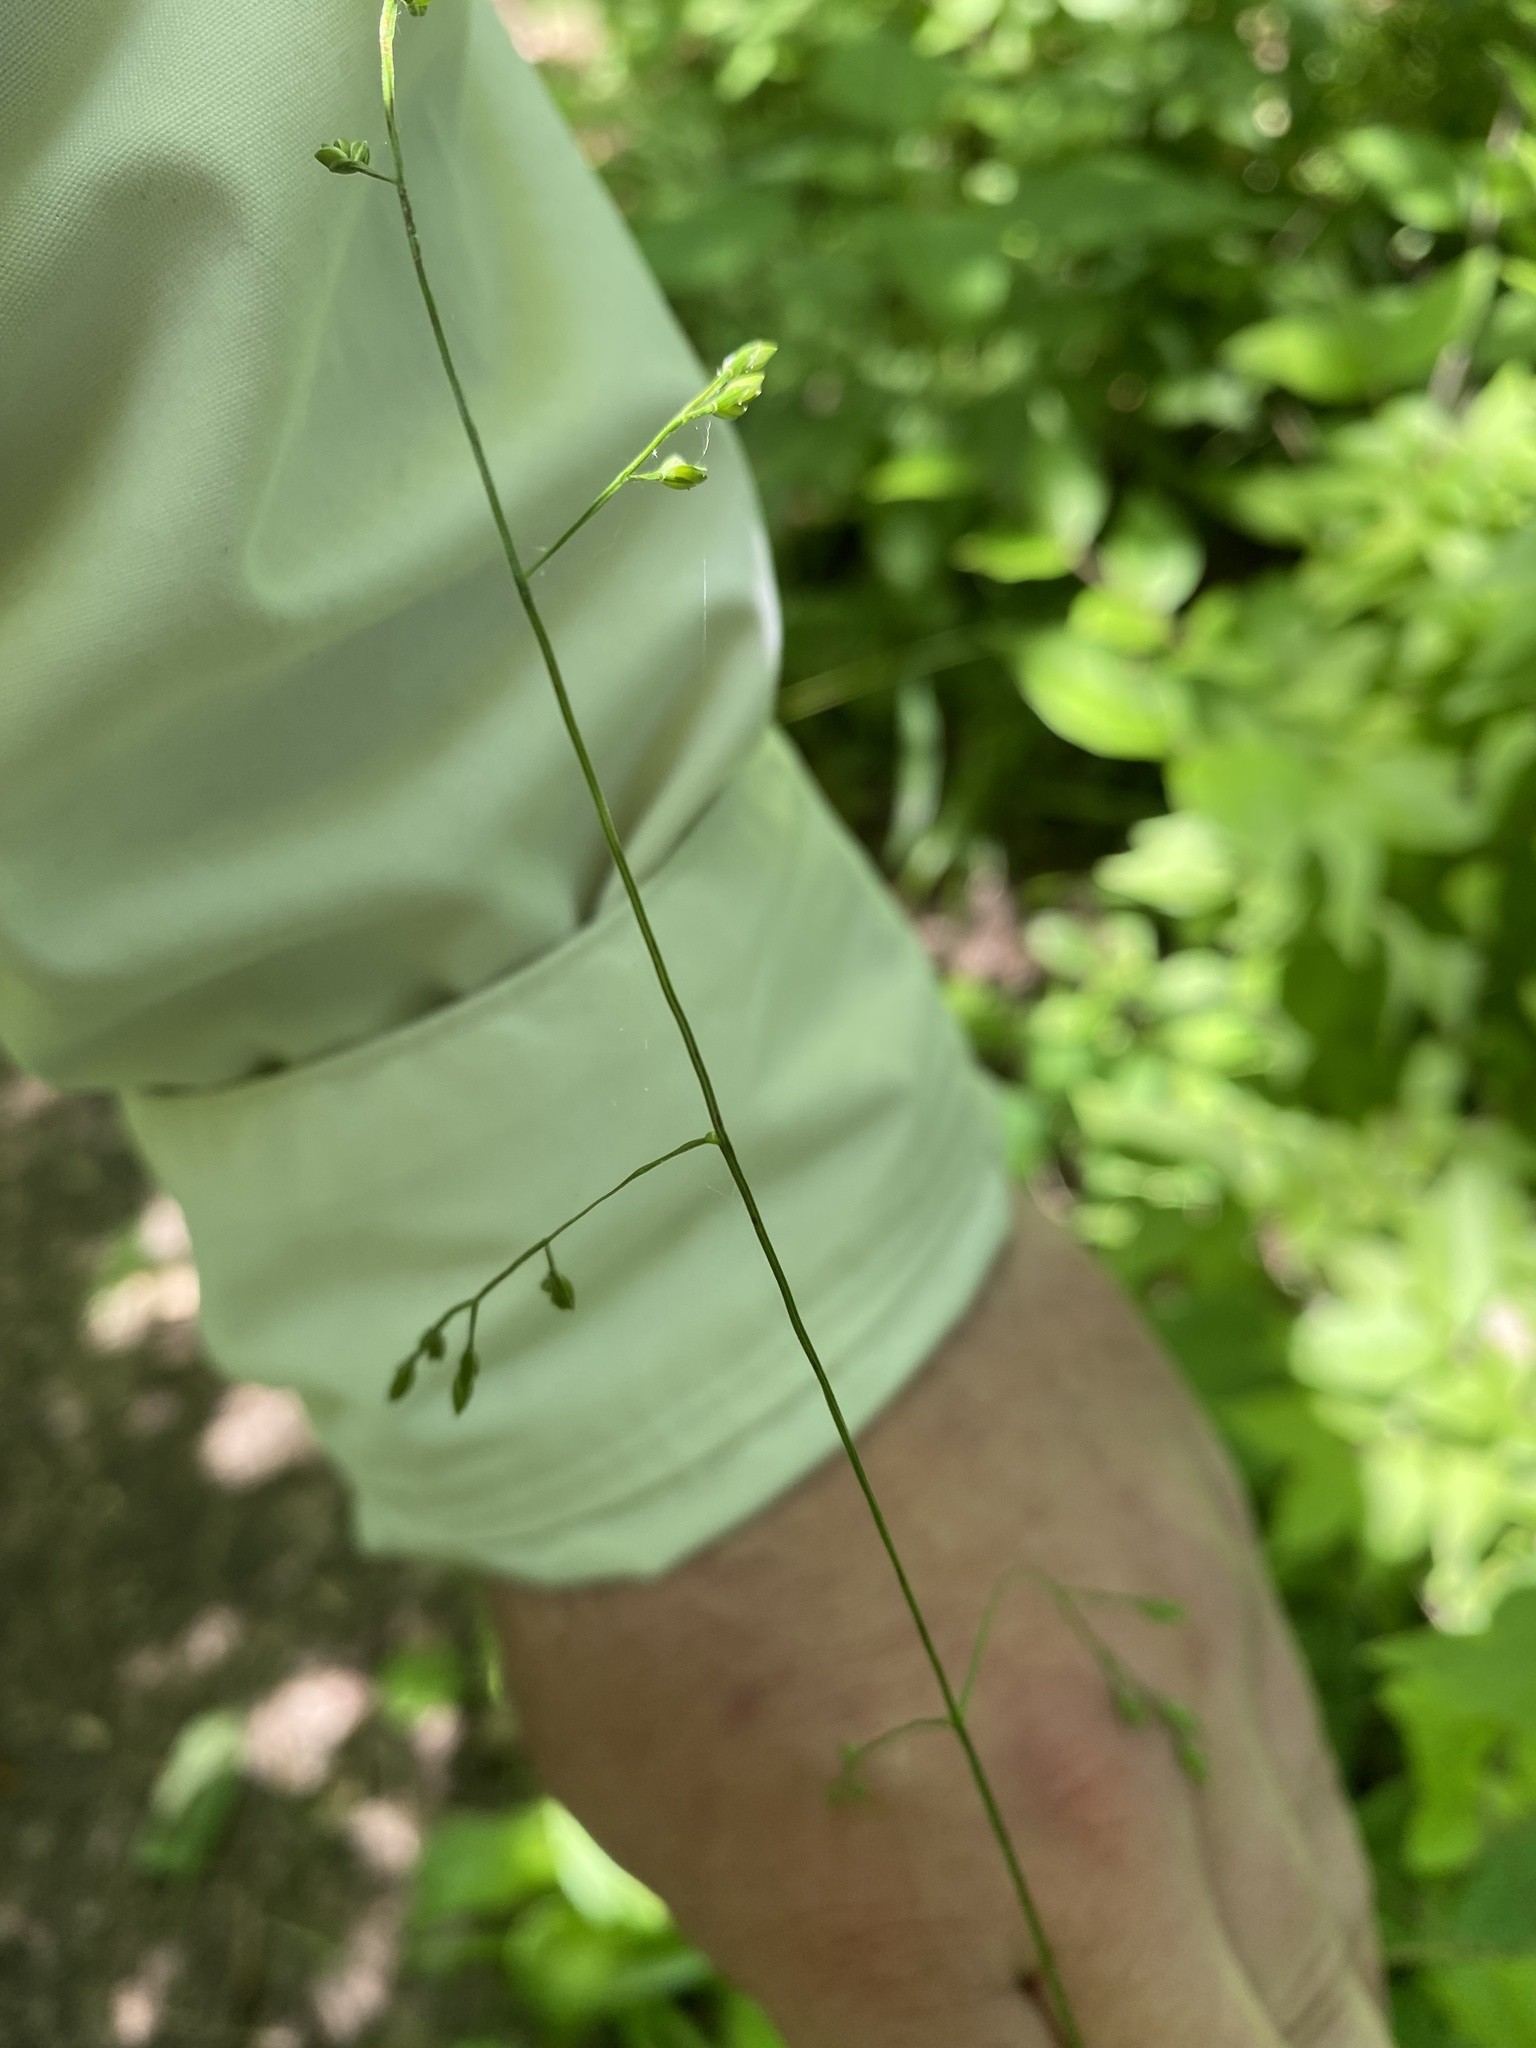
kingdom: Plantae
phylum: Tracheophyta
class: Liliopsida
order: Poales
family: Poaceae
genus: Festuca
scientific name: Festuca subverticillata
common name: Nodding fescue
